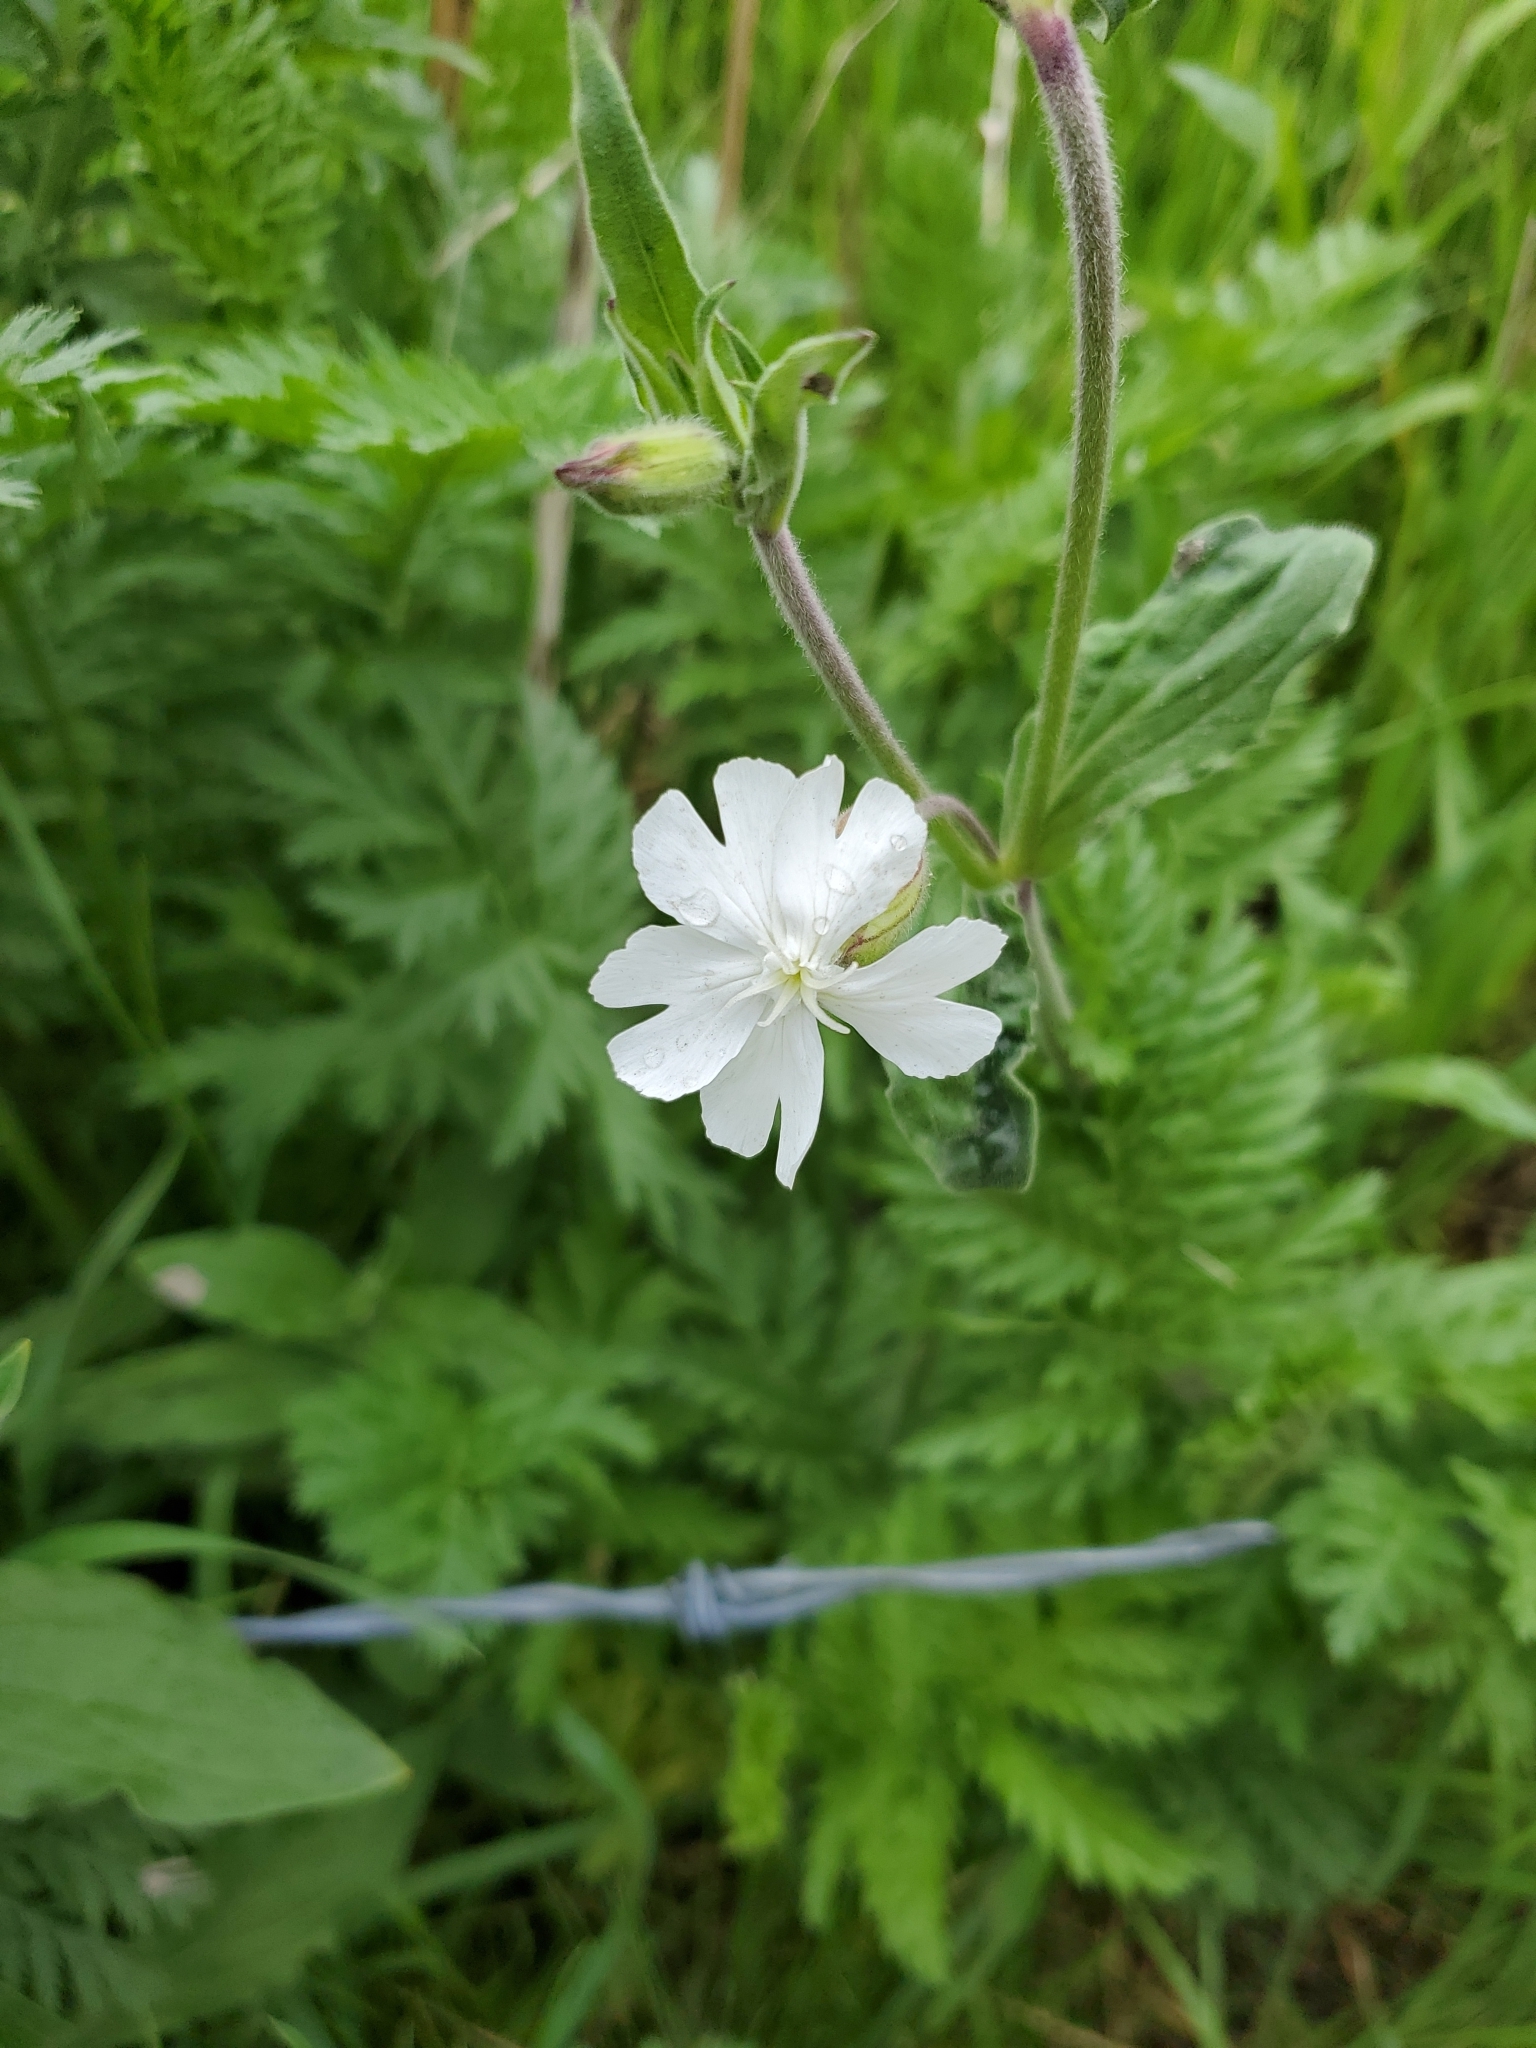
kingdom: Plantae
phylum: Tracheophyta
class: Magnoliopsida
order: Caryophyllales
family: Caryophyllaceae
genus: Silene
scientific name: Silene latifolia
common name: White campion
